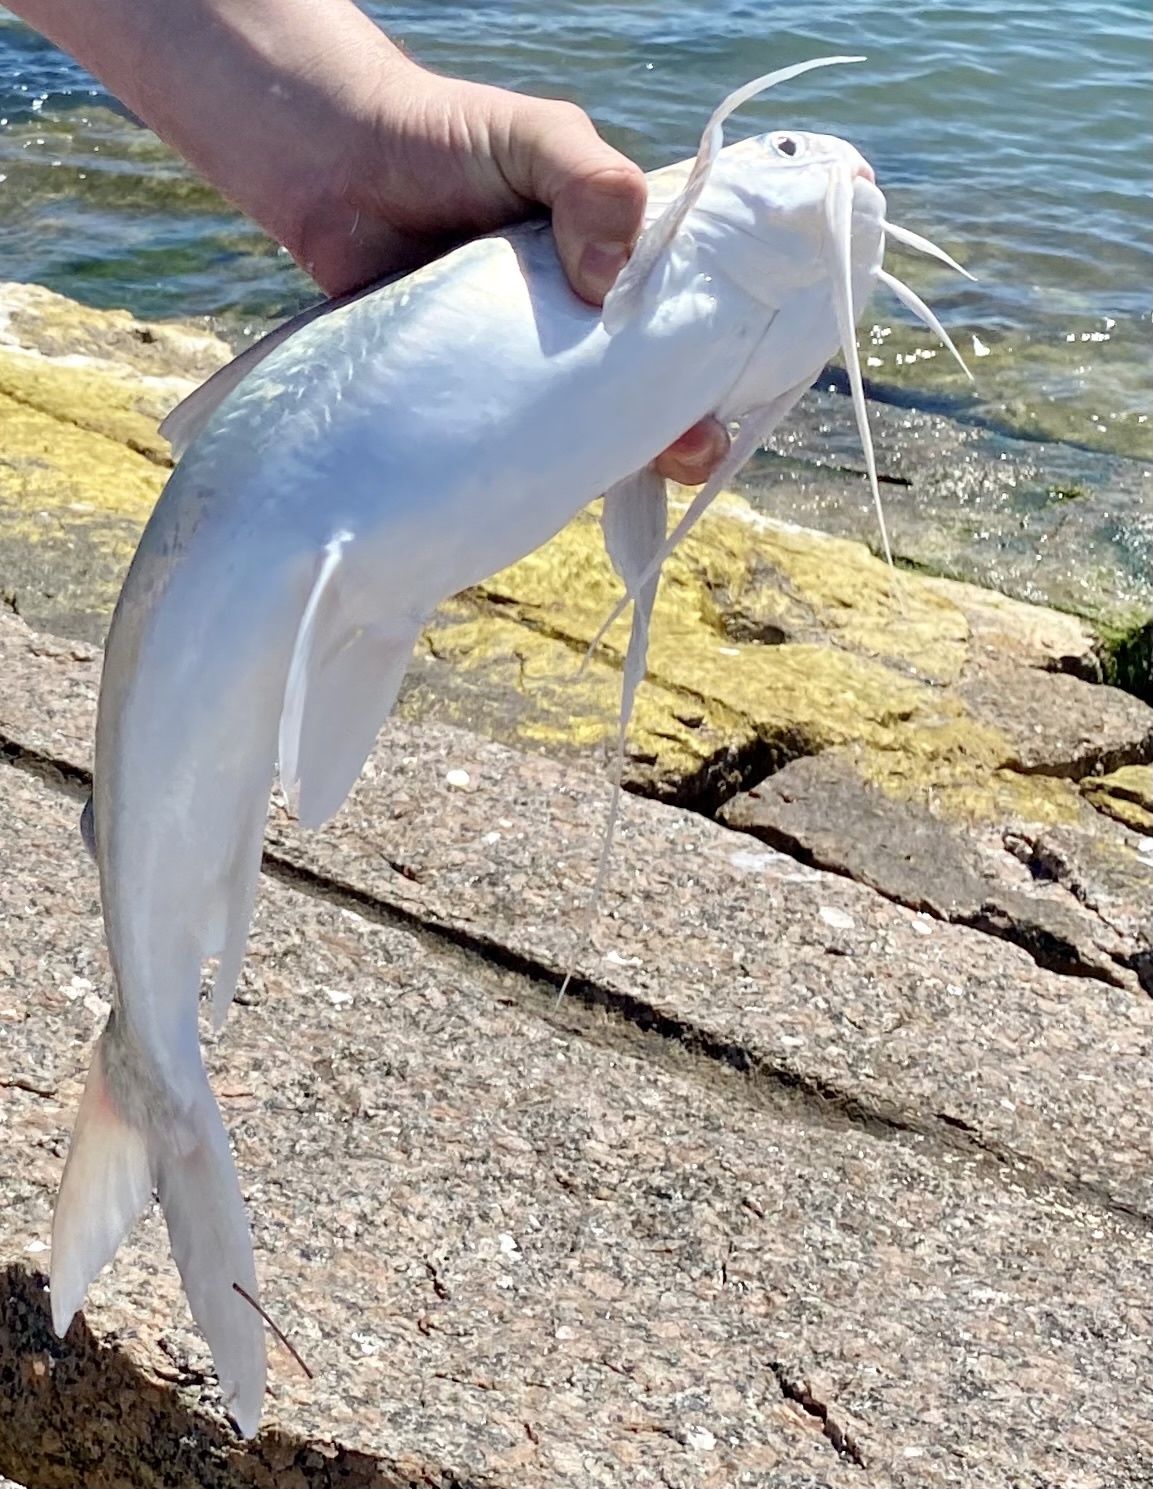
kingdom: Animalia
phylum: Chordata
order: Siluriformes
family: Ariidae
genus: Bagre
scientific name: Bagre marinus
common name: Gafftopsail sea catfish
